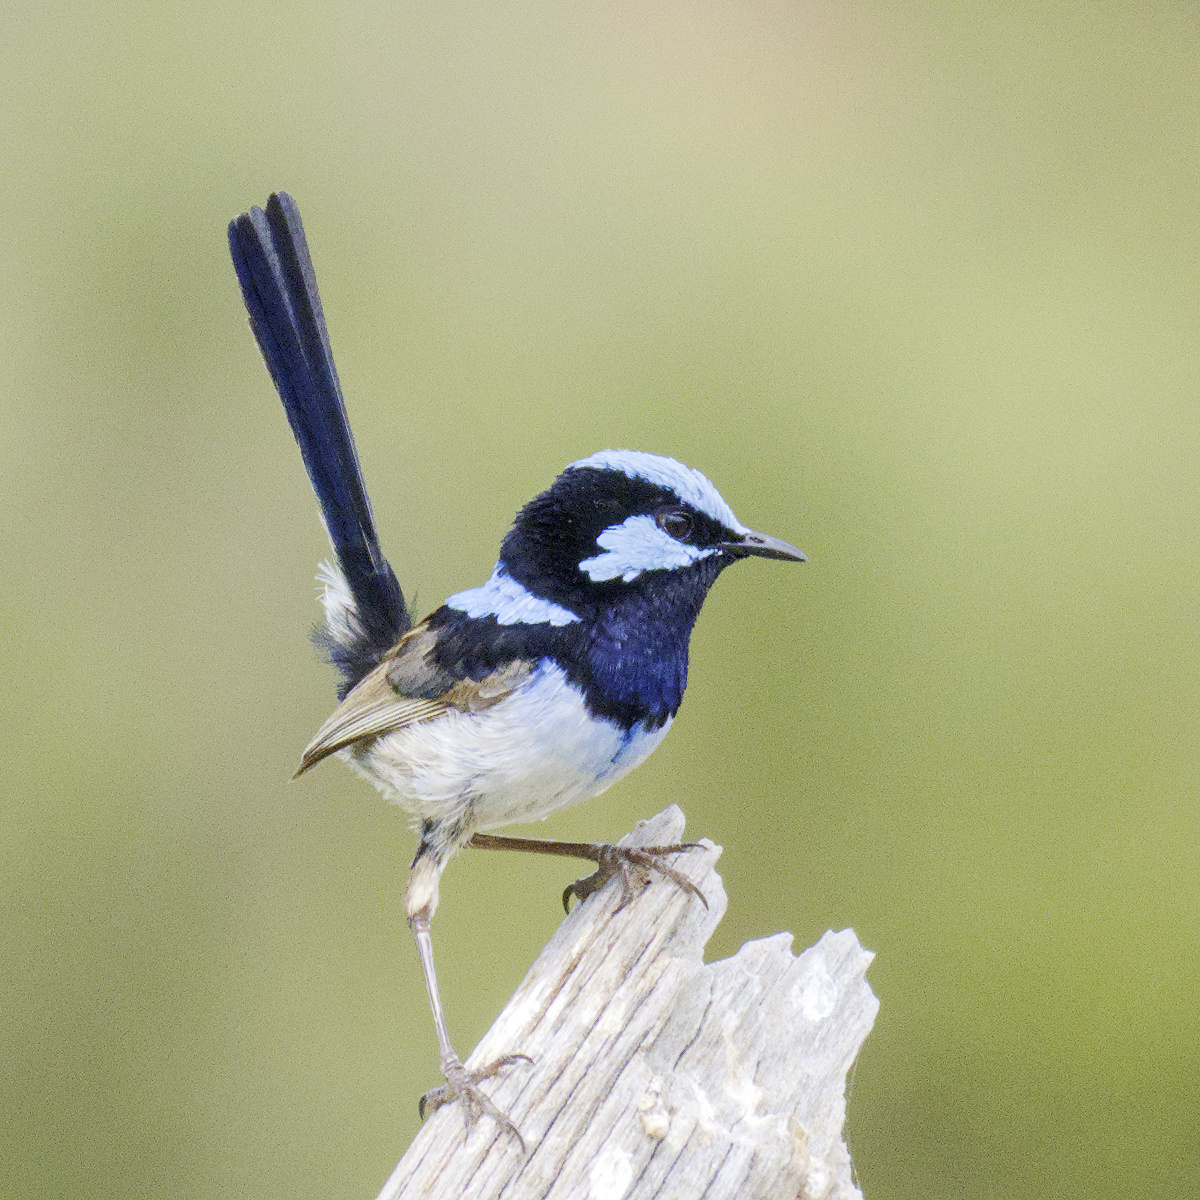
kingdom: Animalia
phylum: Chordata
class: Aves
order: Passeriformes
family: Maluridae
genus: Malurus
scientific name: Malurus cyaneus
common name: Superb fairywren
